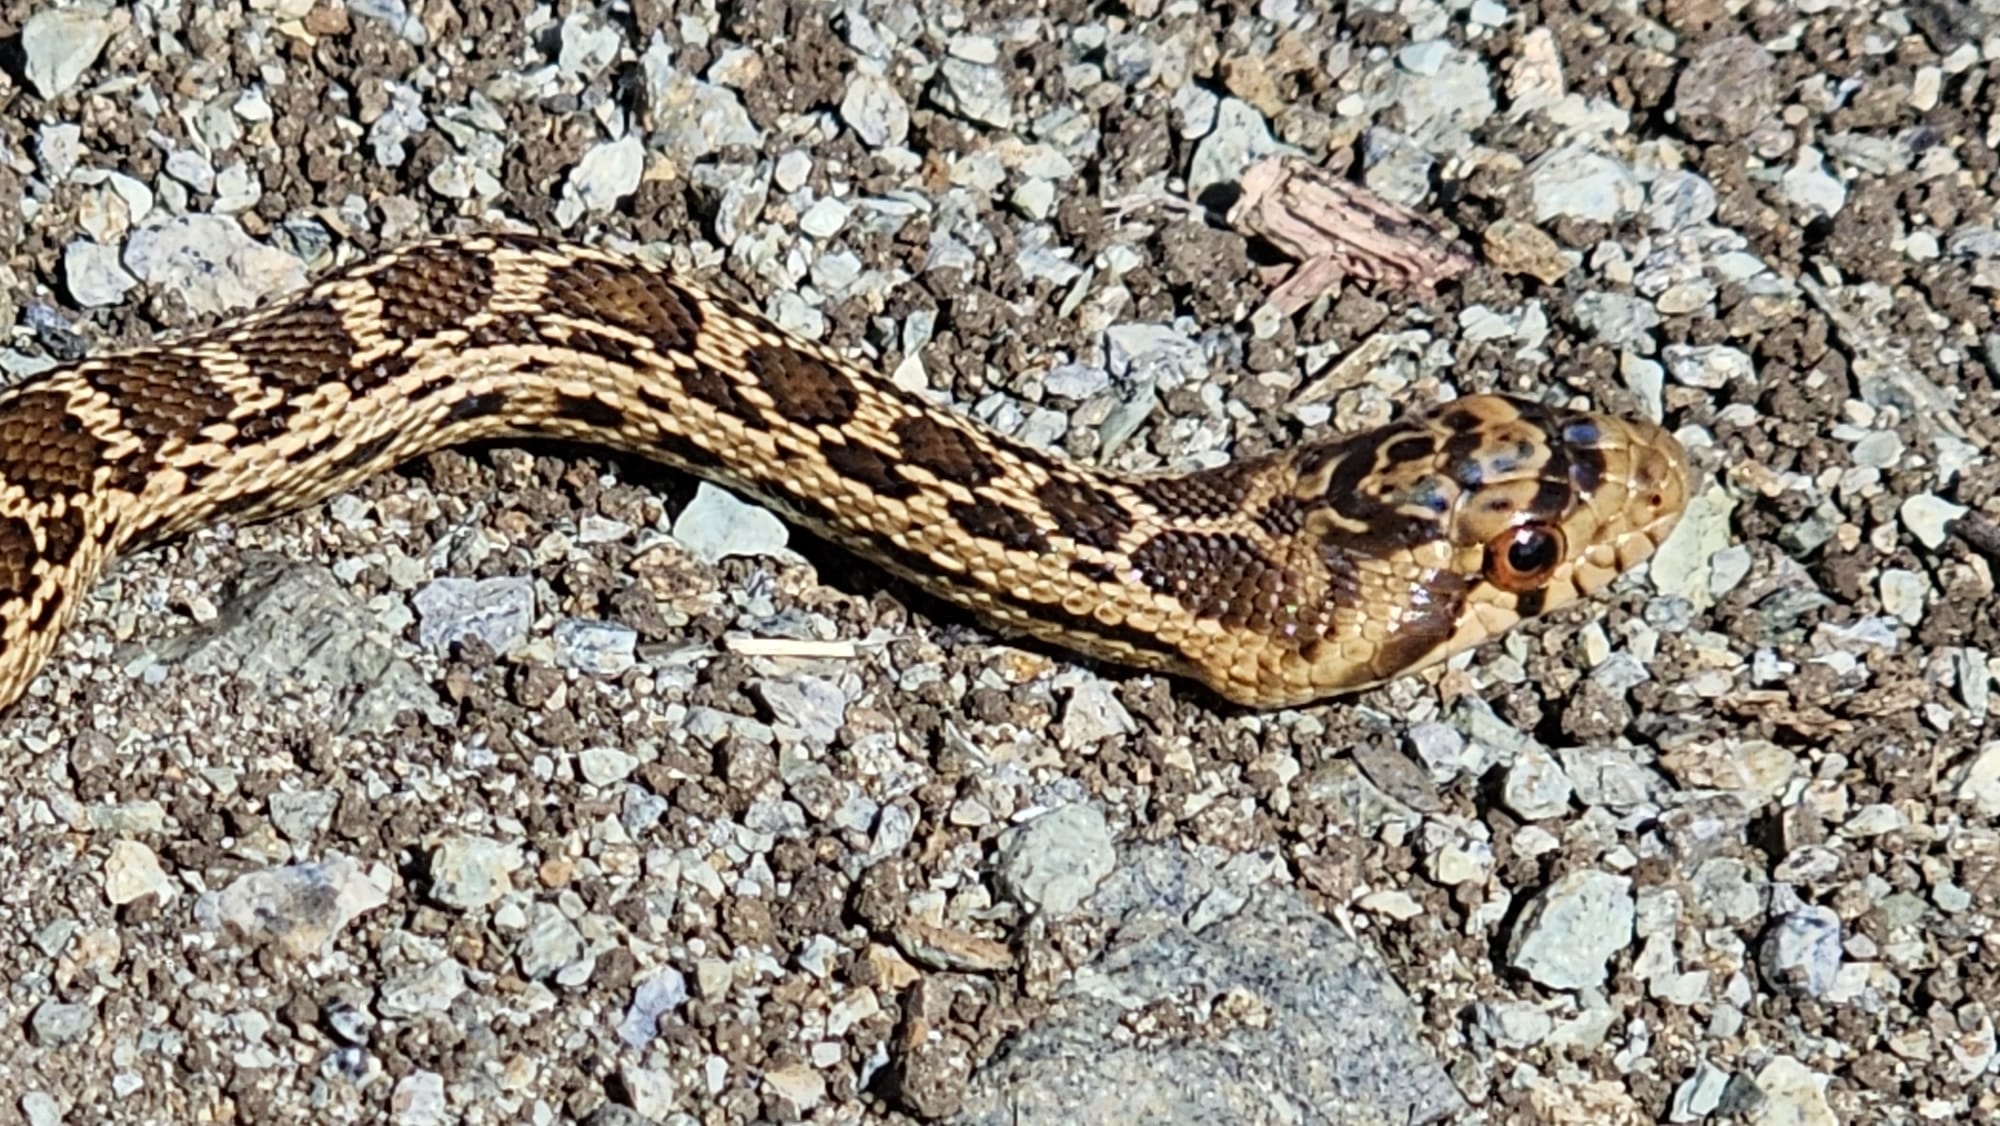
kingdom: Animalia
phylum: Chordata
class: Squamata
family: Colubridae
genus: Pituophis
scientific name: Pituophis catenifer
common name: Gopher snake
